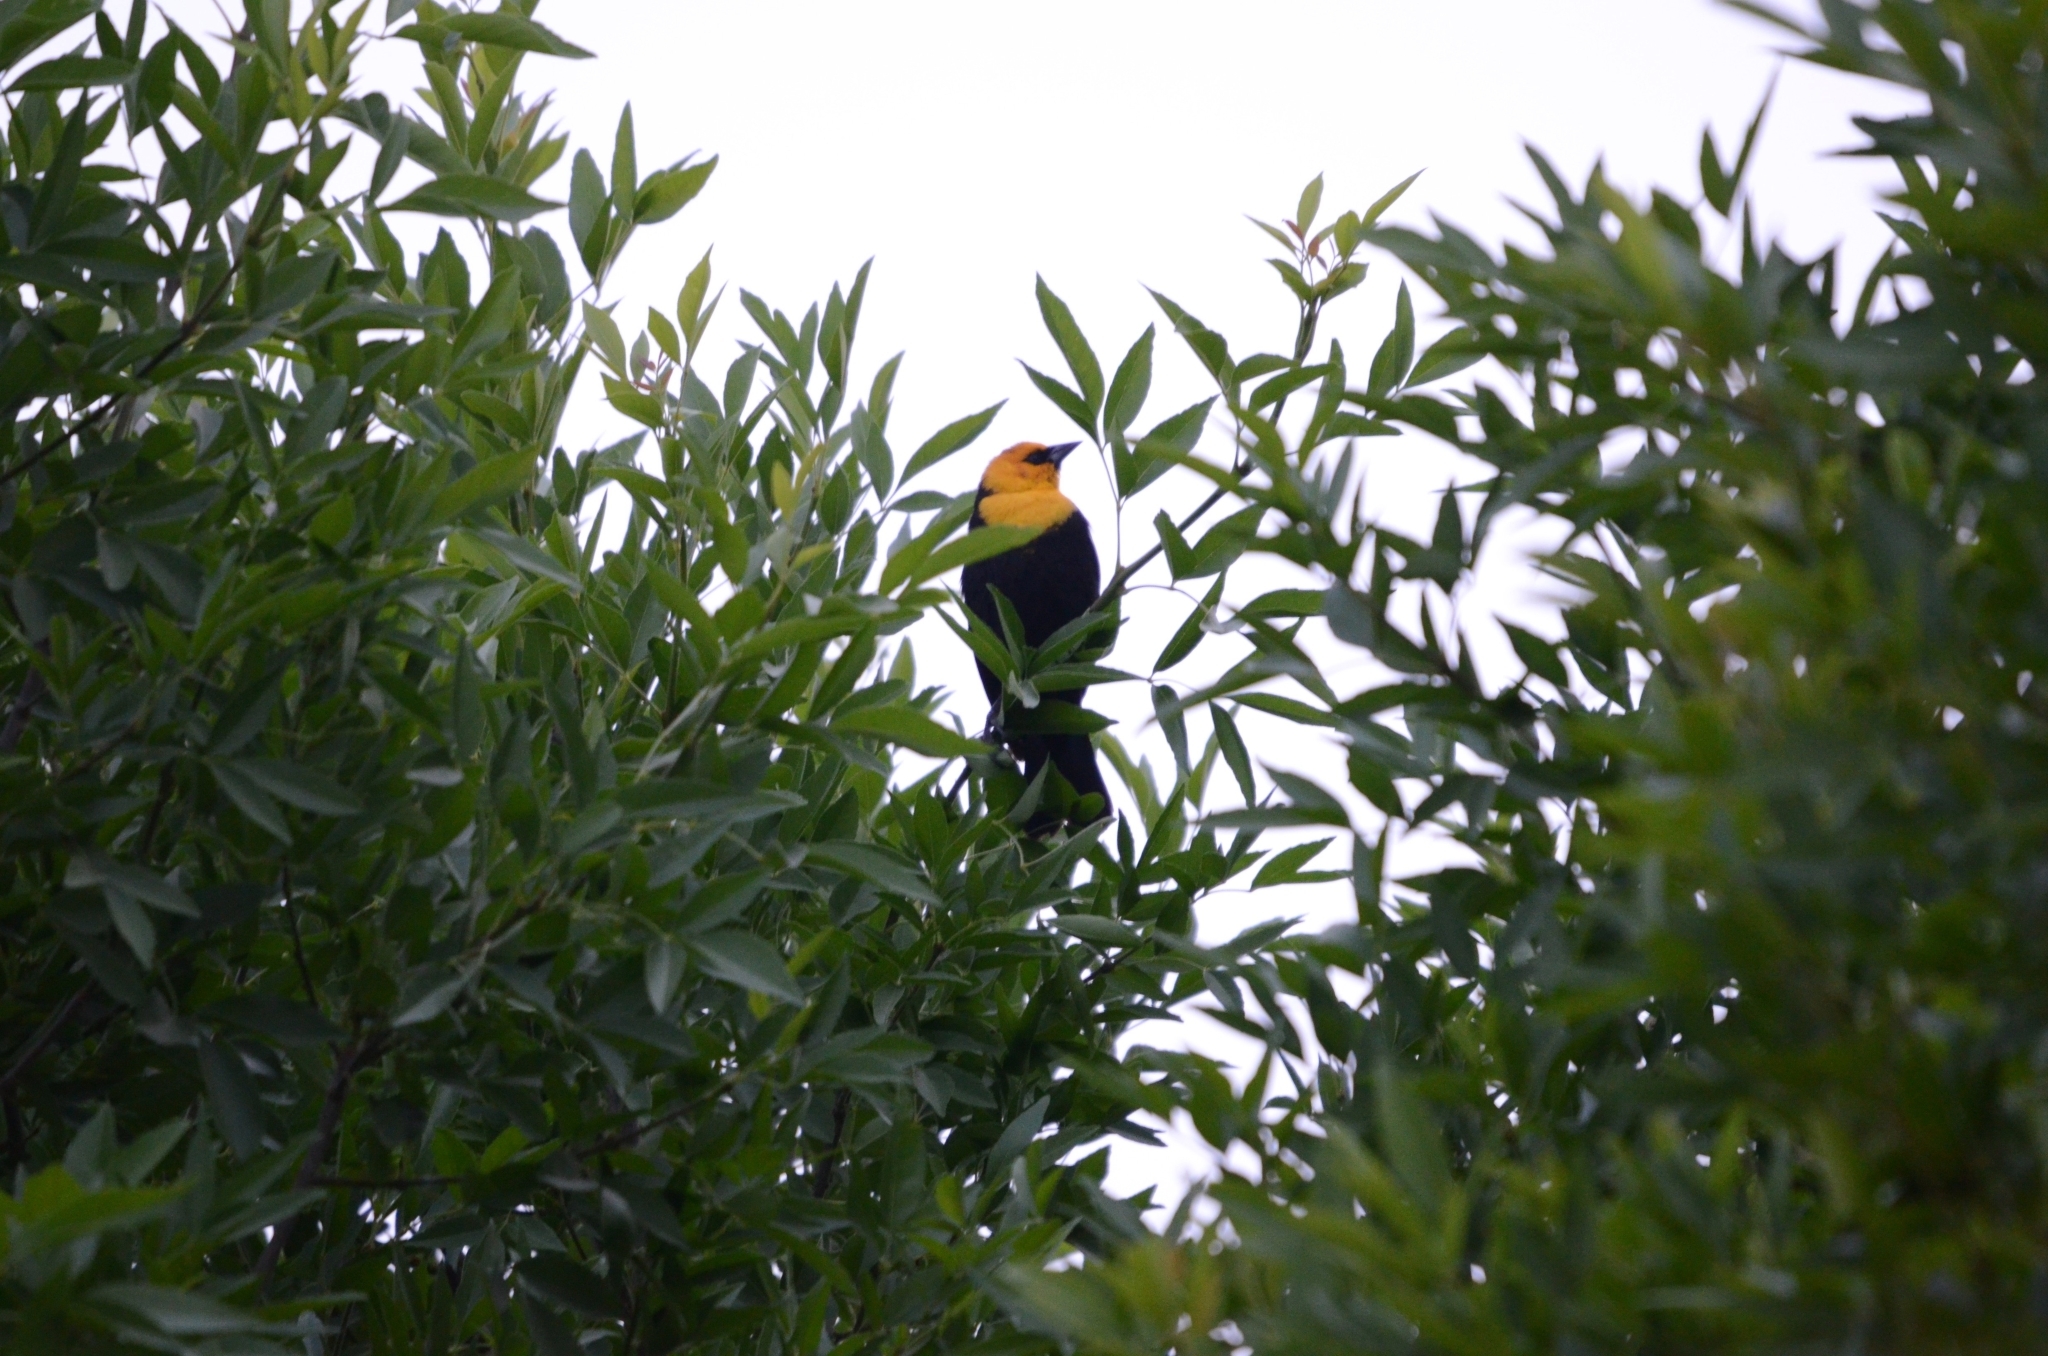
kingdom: Animalia
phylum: Chordata
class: Aves
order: Passeriformes
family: Icteridae
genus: Xanthocephalus
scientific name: Xanthocephalus xanthocephalus
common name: Yellow-headed blackbird
